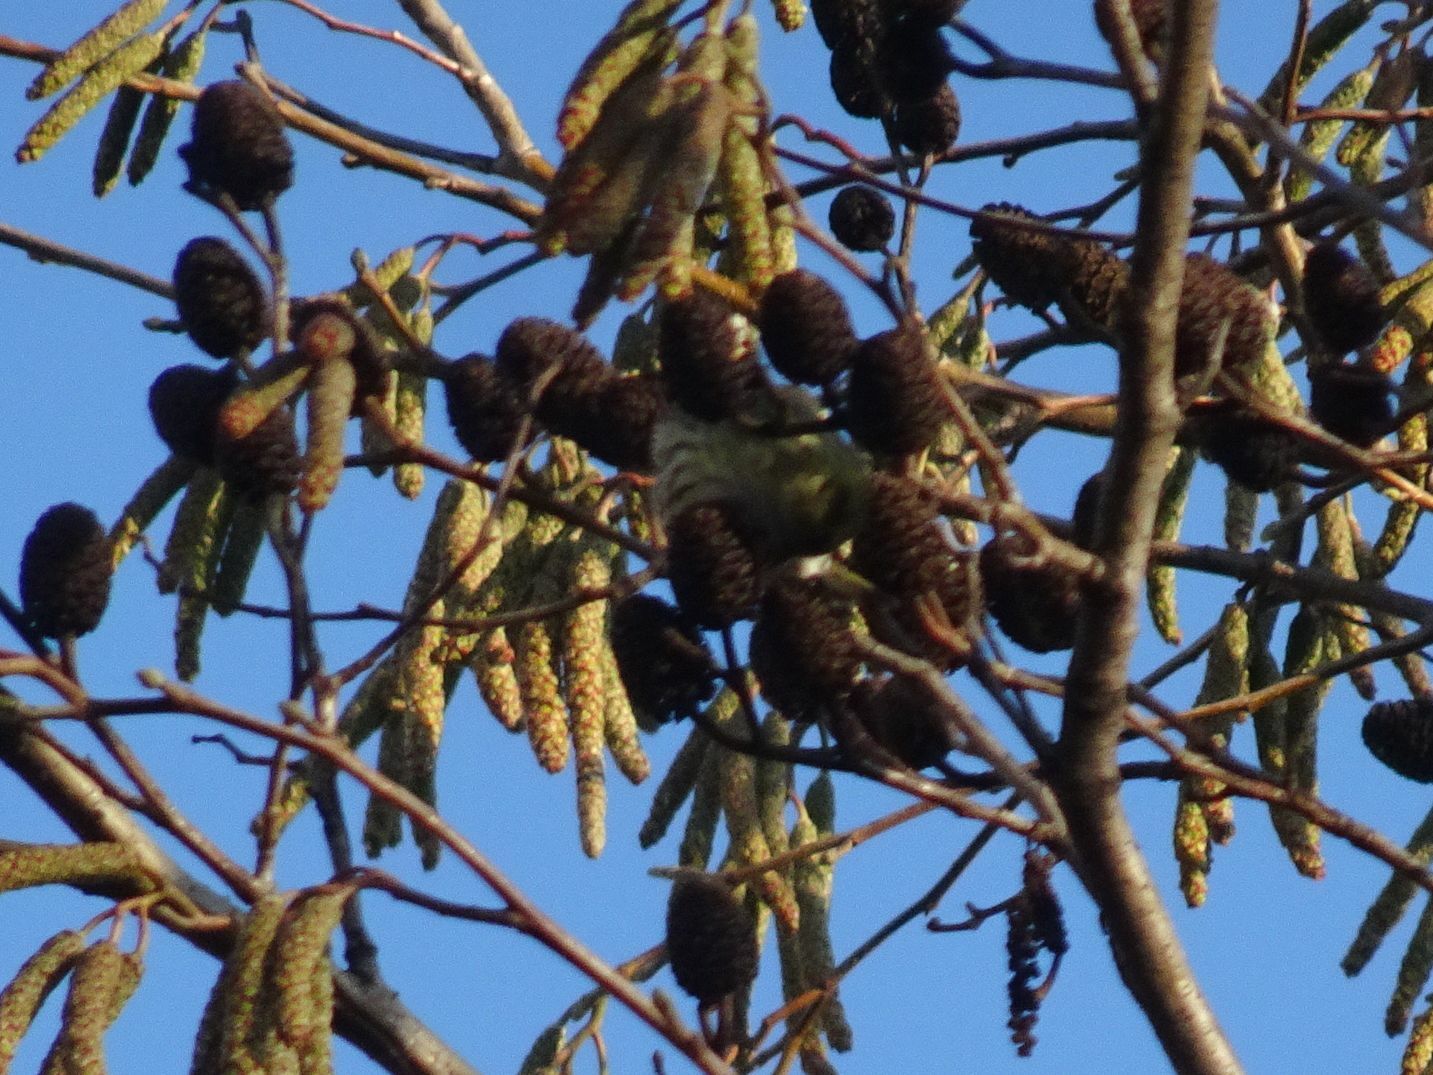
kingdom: Animalia
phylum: Chordata
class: Aves
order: Passeriformes
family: Fringillidae
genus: Spinus
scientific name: Spinus spinus
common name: Eurasian siskin
